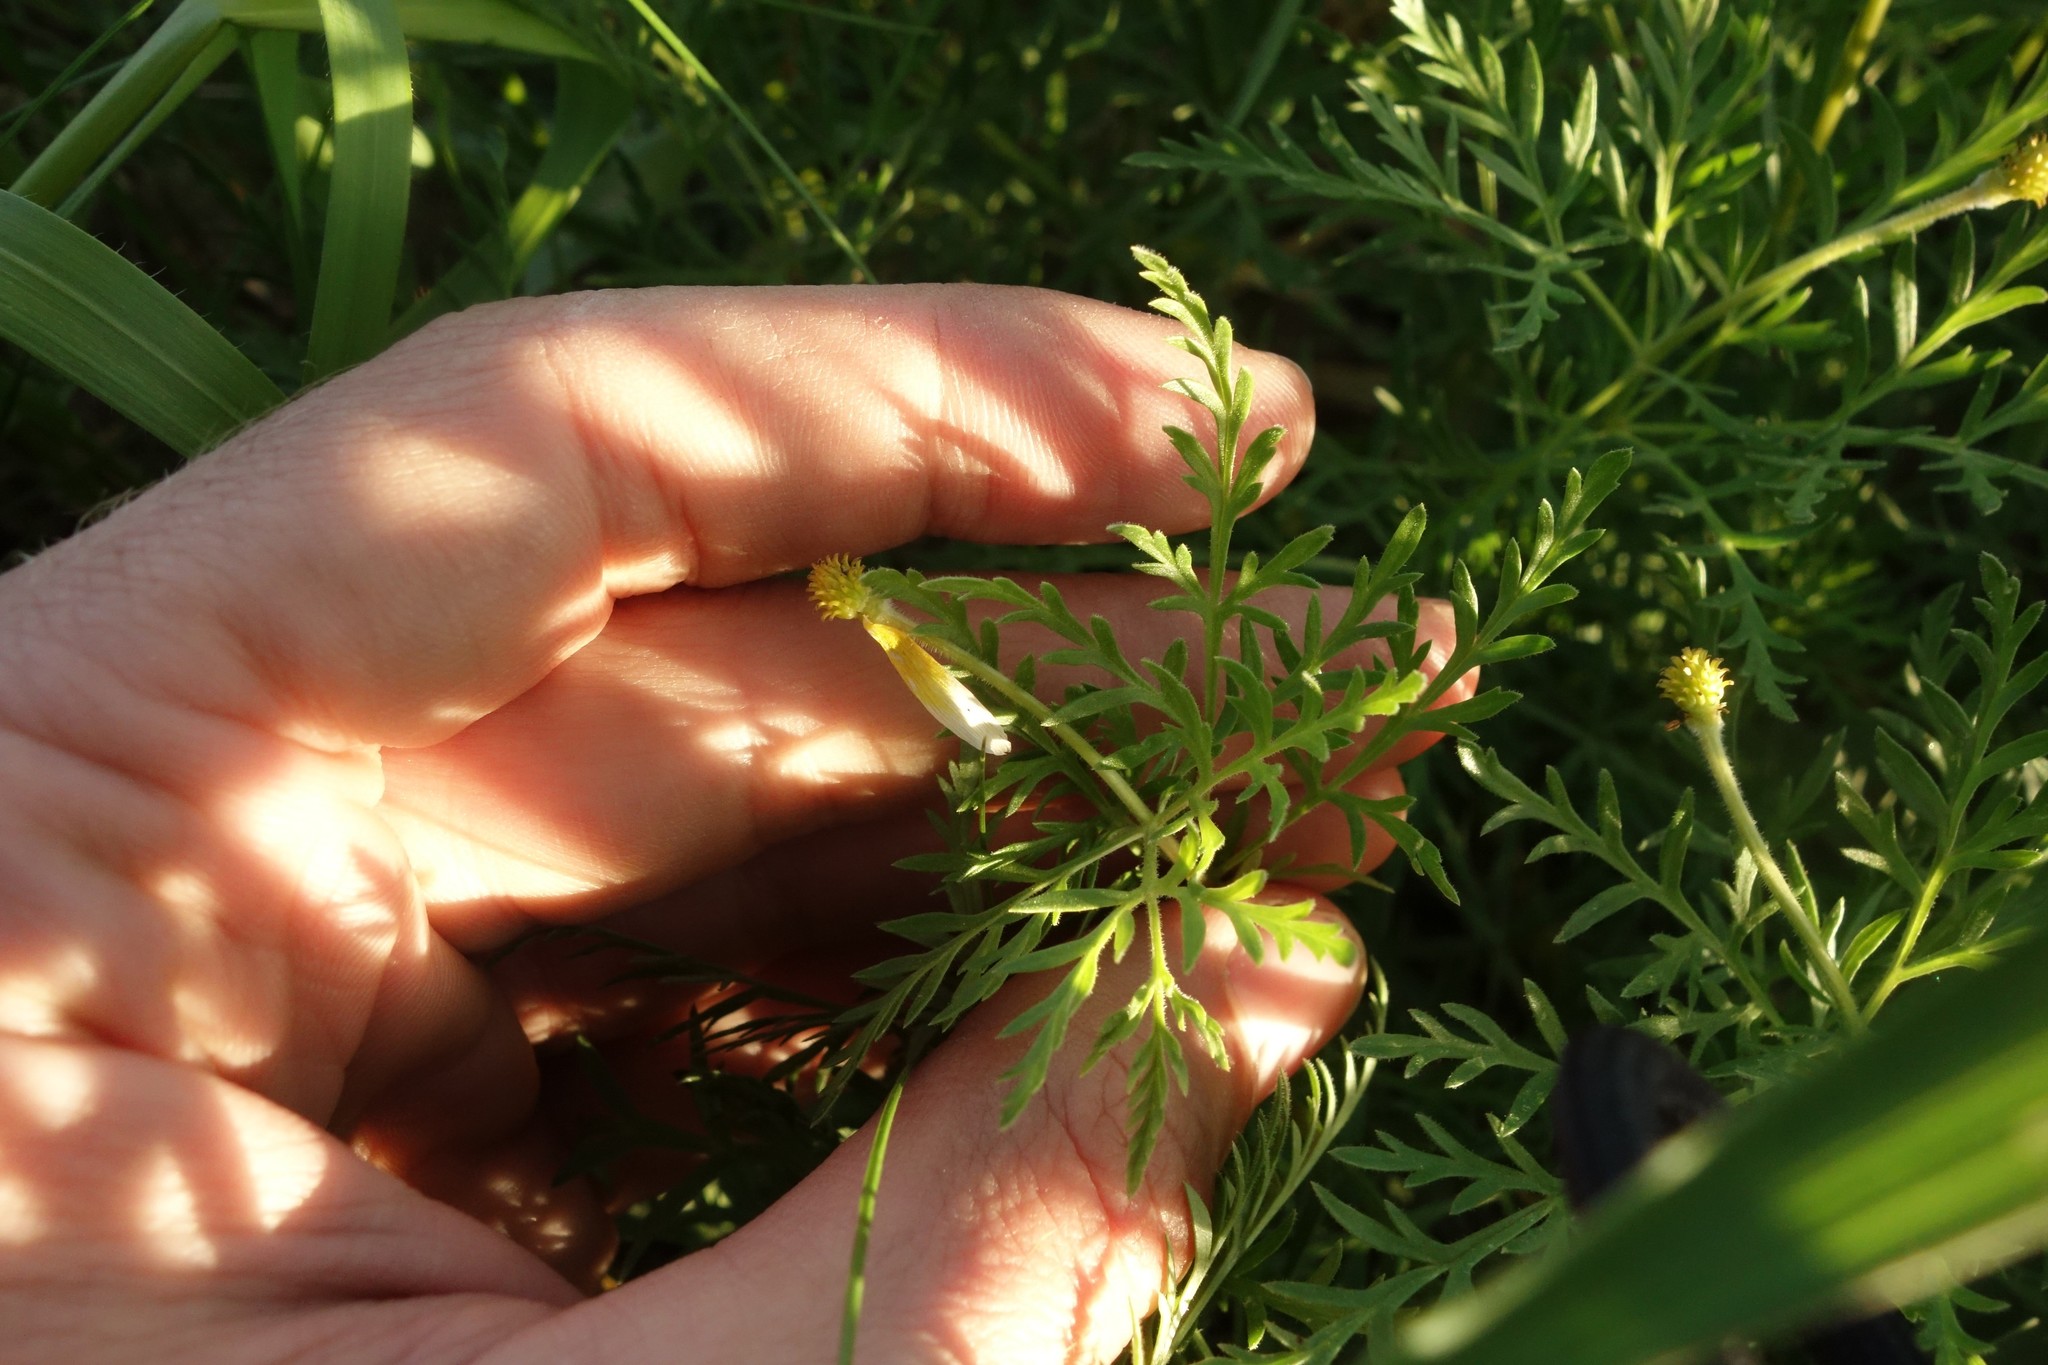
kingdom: Plantae
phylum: Tracheophyta
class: Magnoliopsida
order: Ranunculales
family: Ranunculaceae
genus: Adonis
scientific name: Adonis volgensis
